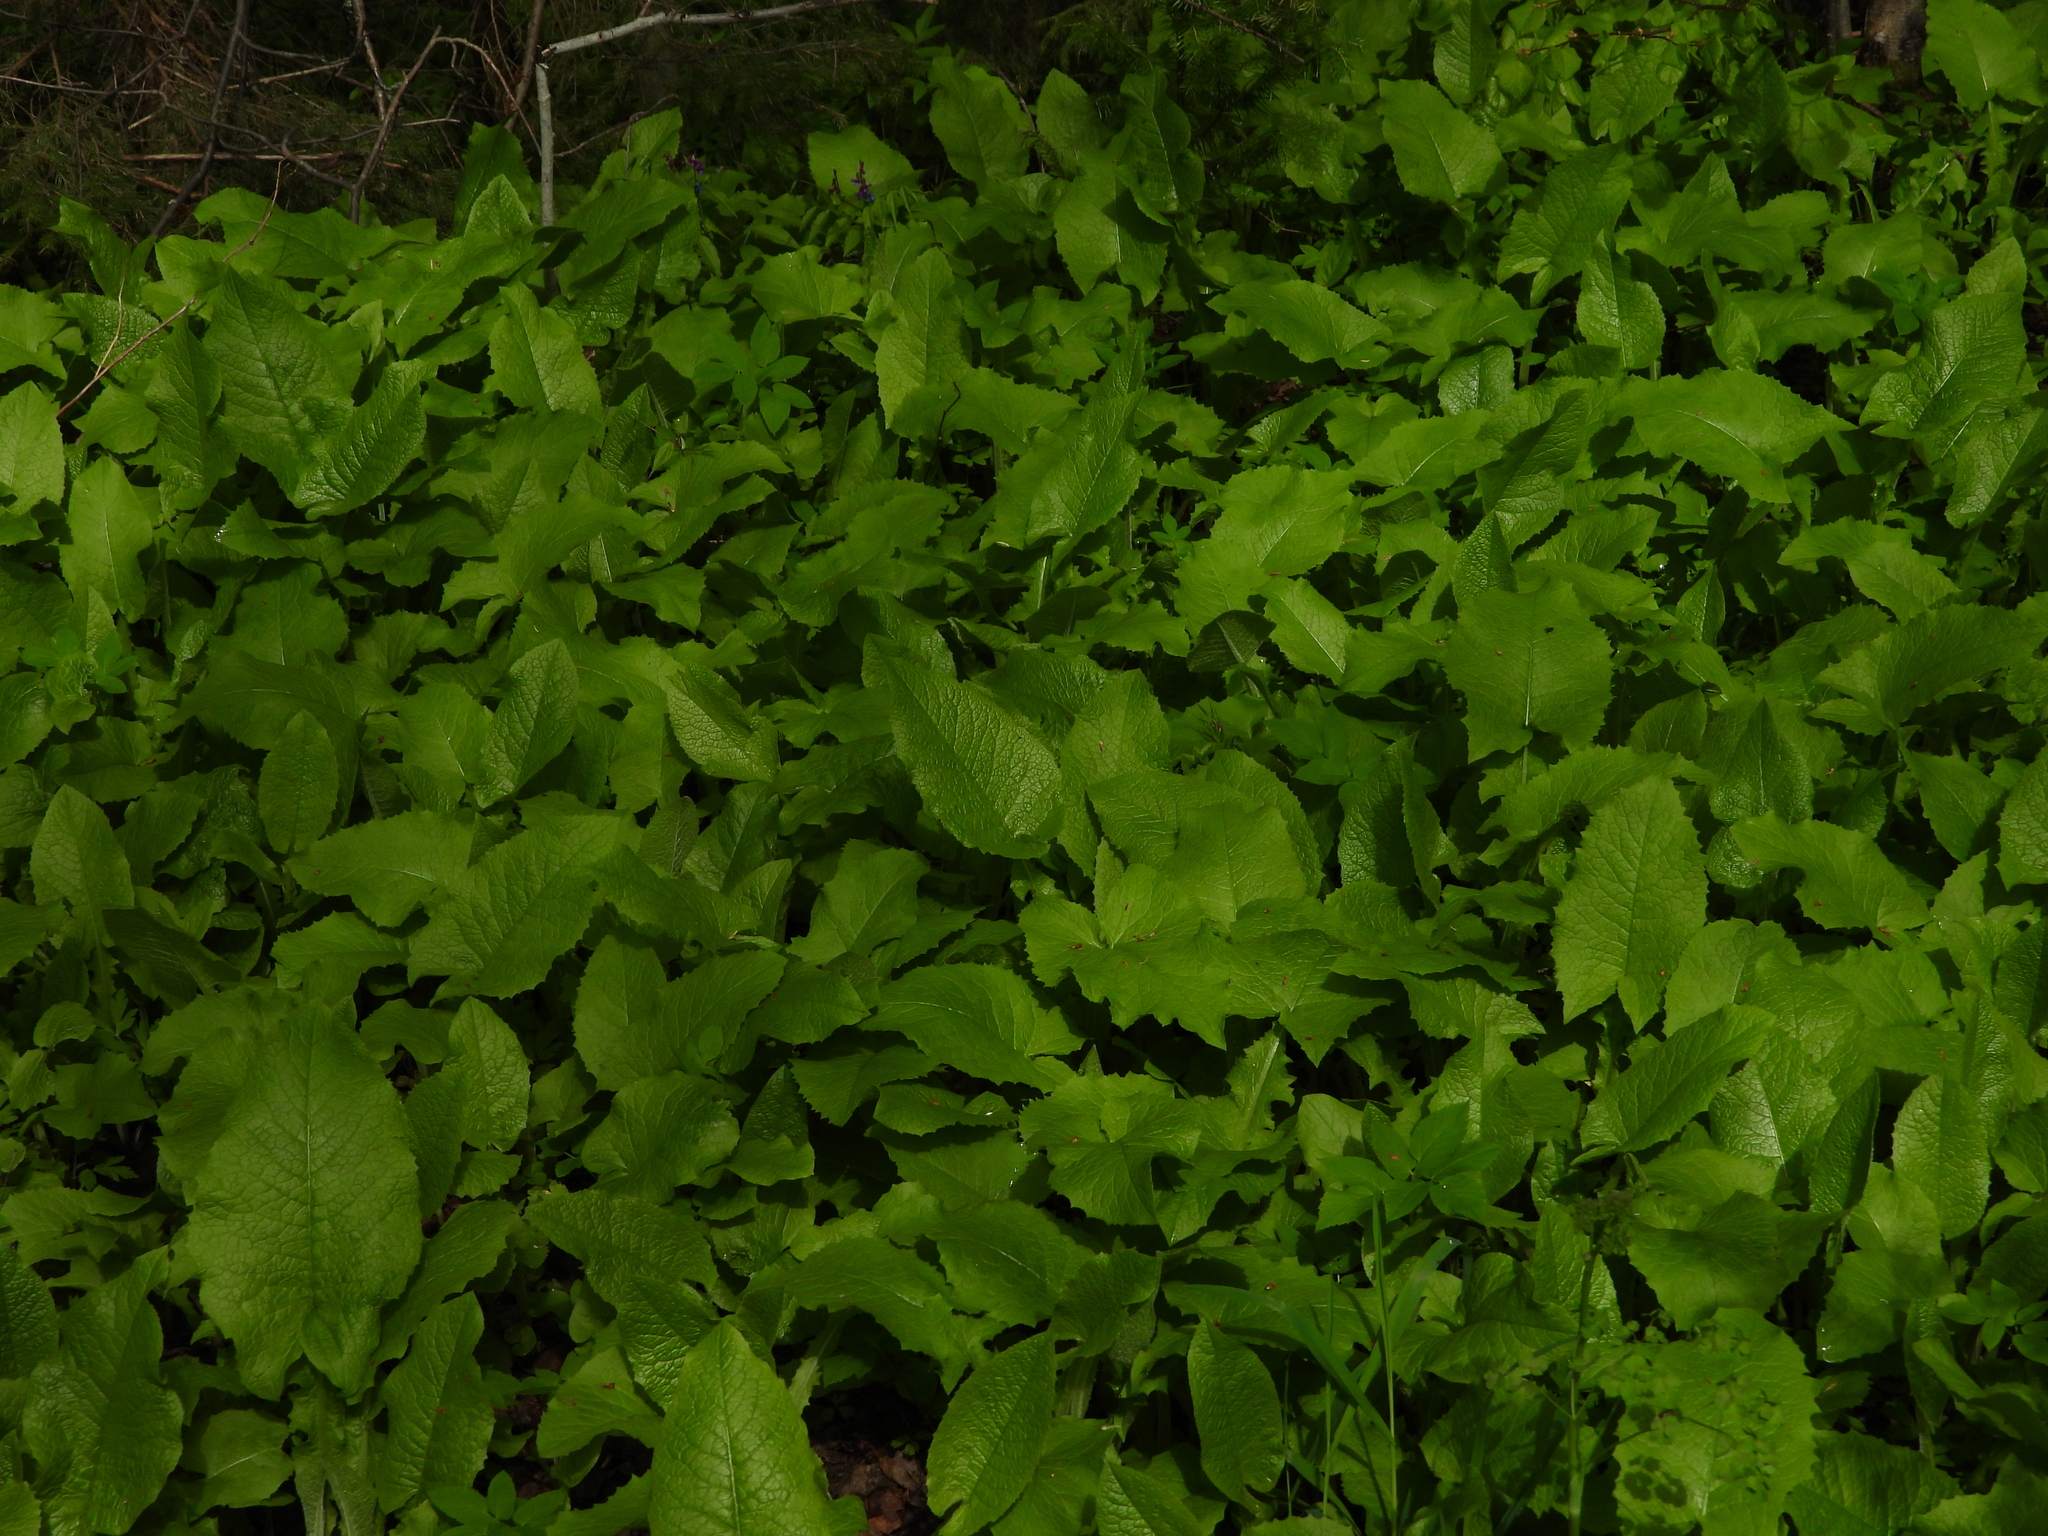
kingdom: Plantae
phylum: Tracheophyta
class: Magnoliopsida
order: Asterales
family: Asteraceae
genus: Lactuca
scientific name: Lactuca macrophylla
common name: Common blue-sow-thistle
